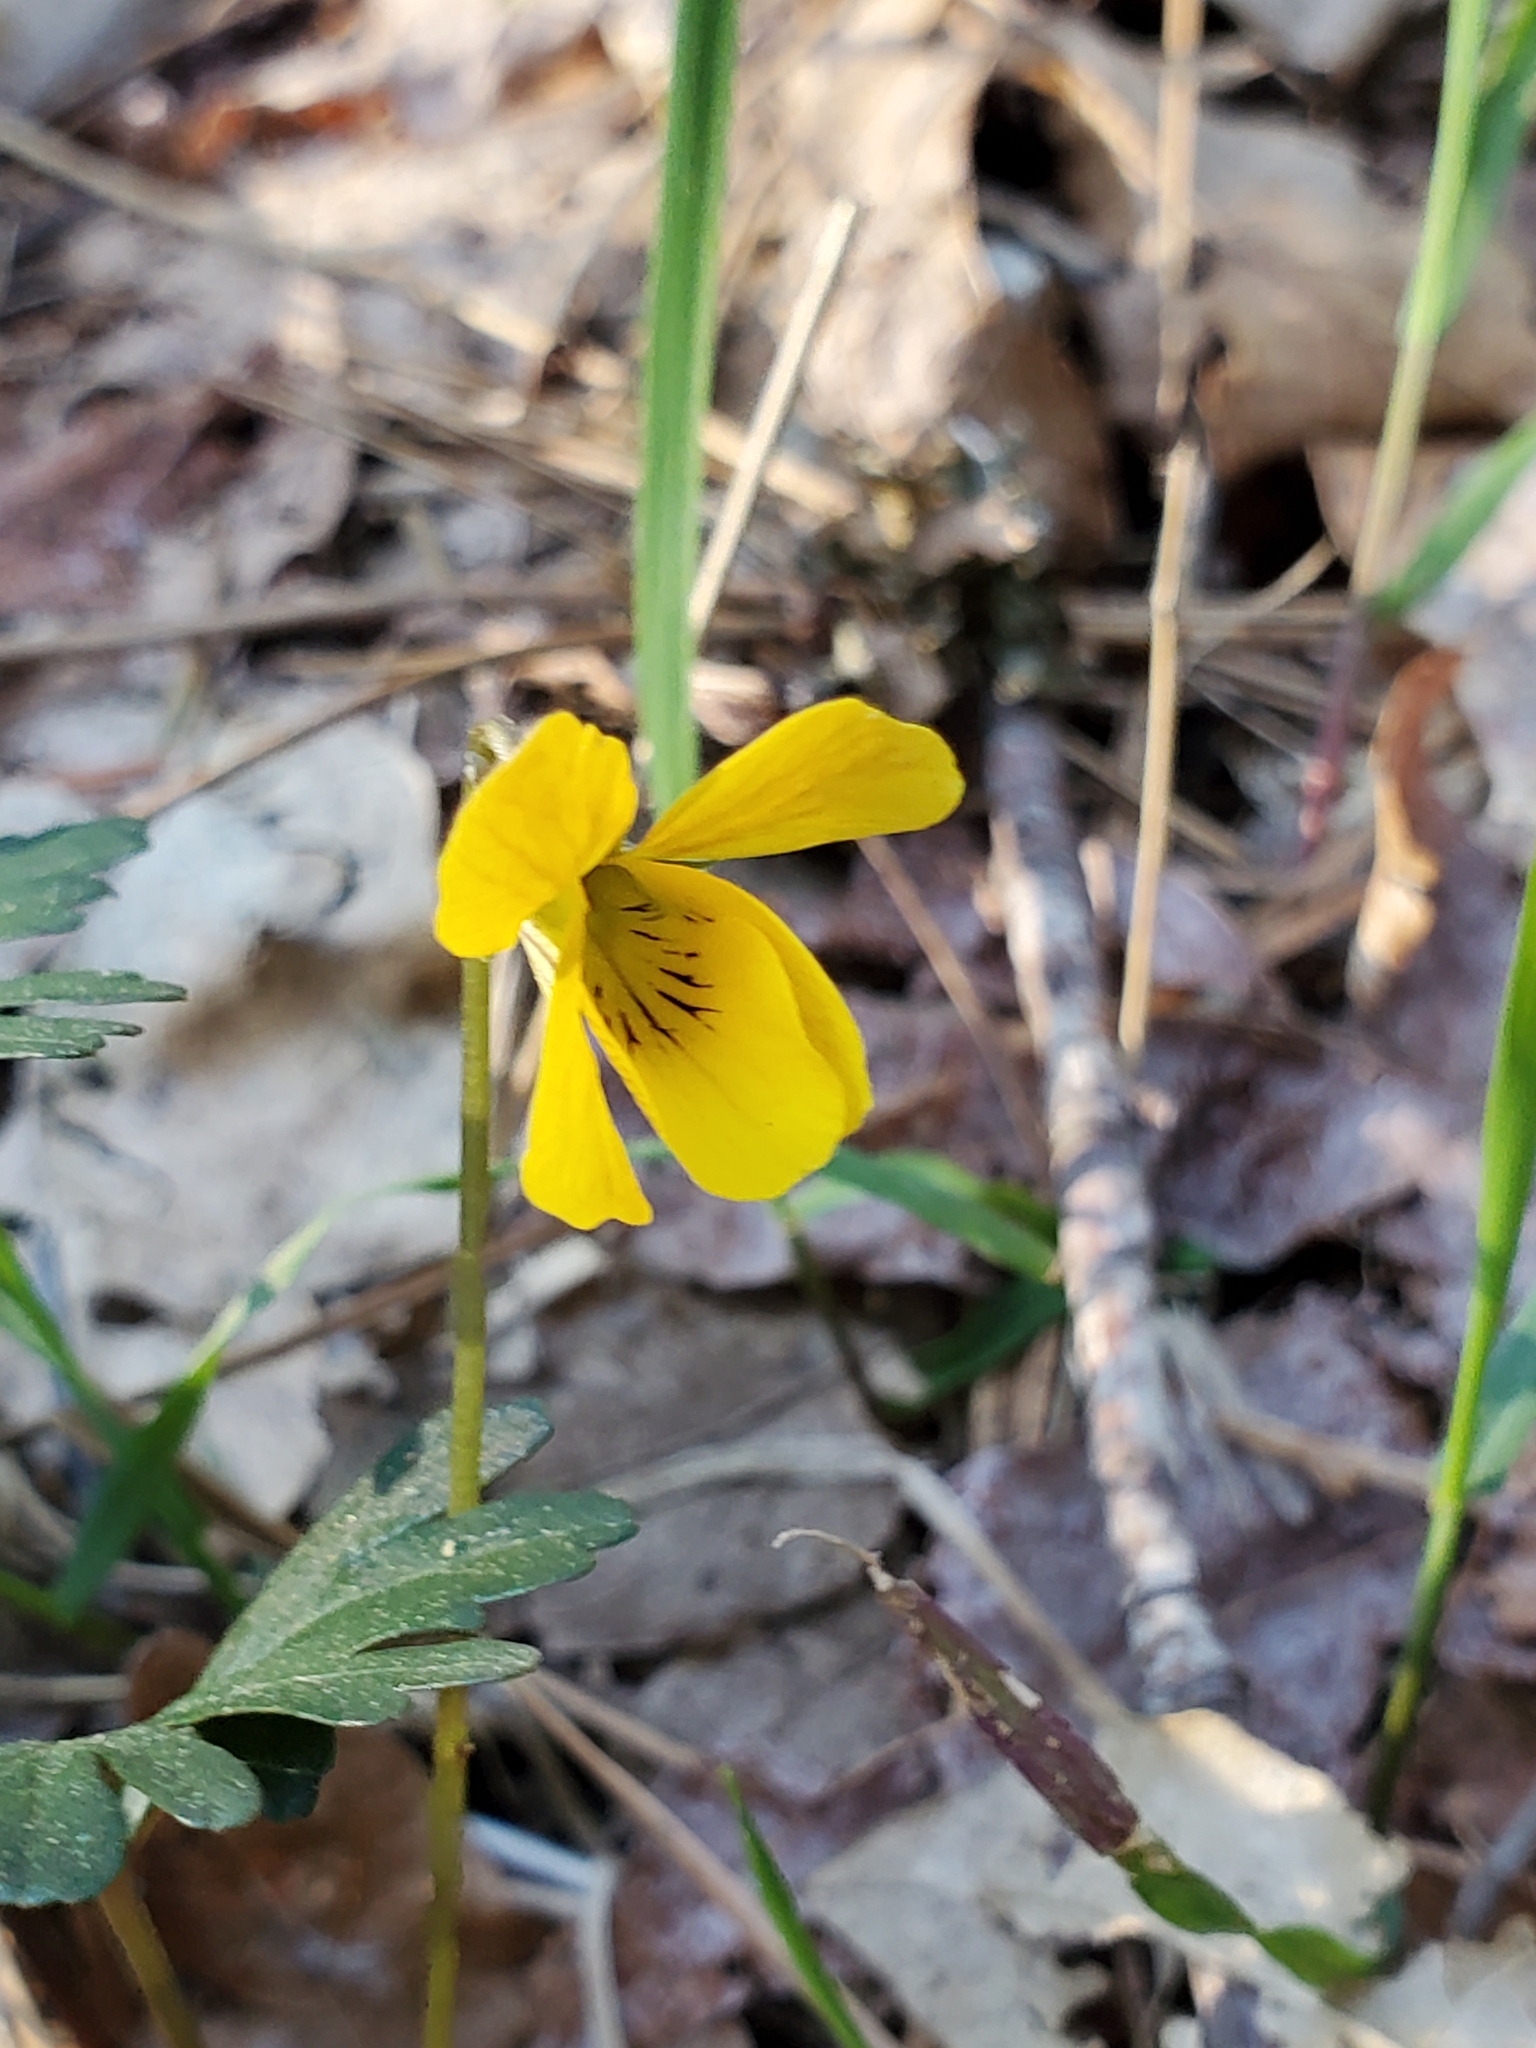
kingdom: Plantae
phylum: Tracheophyta
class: Magnoliopsida
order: Malpighiales
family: Violaceae
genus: Viola
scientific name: Viola sheltonii
